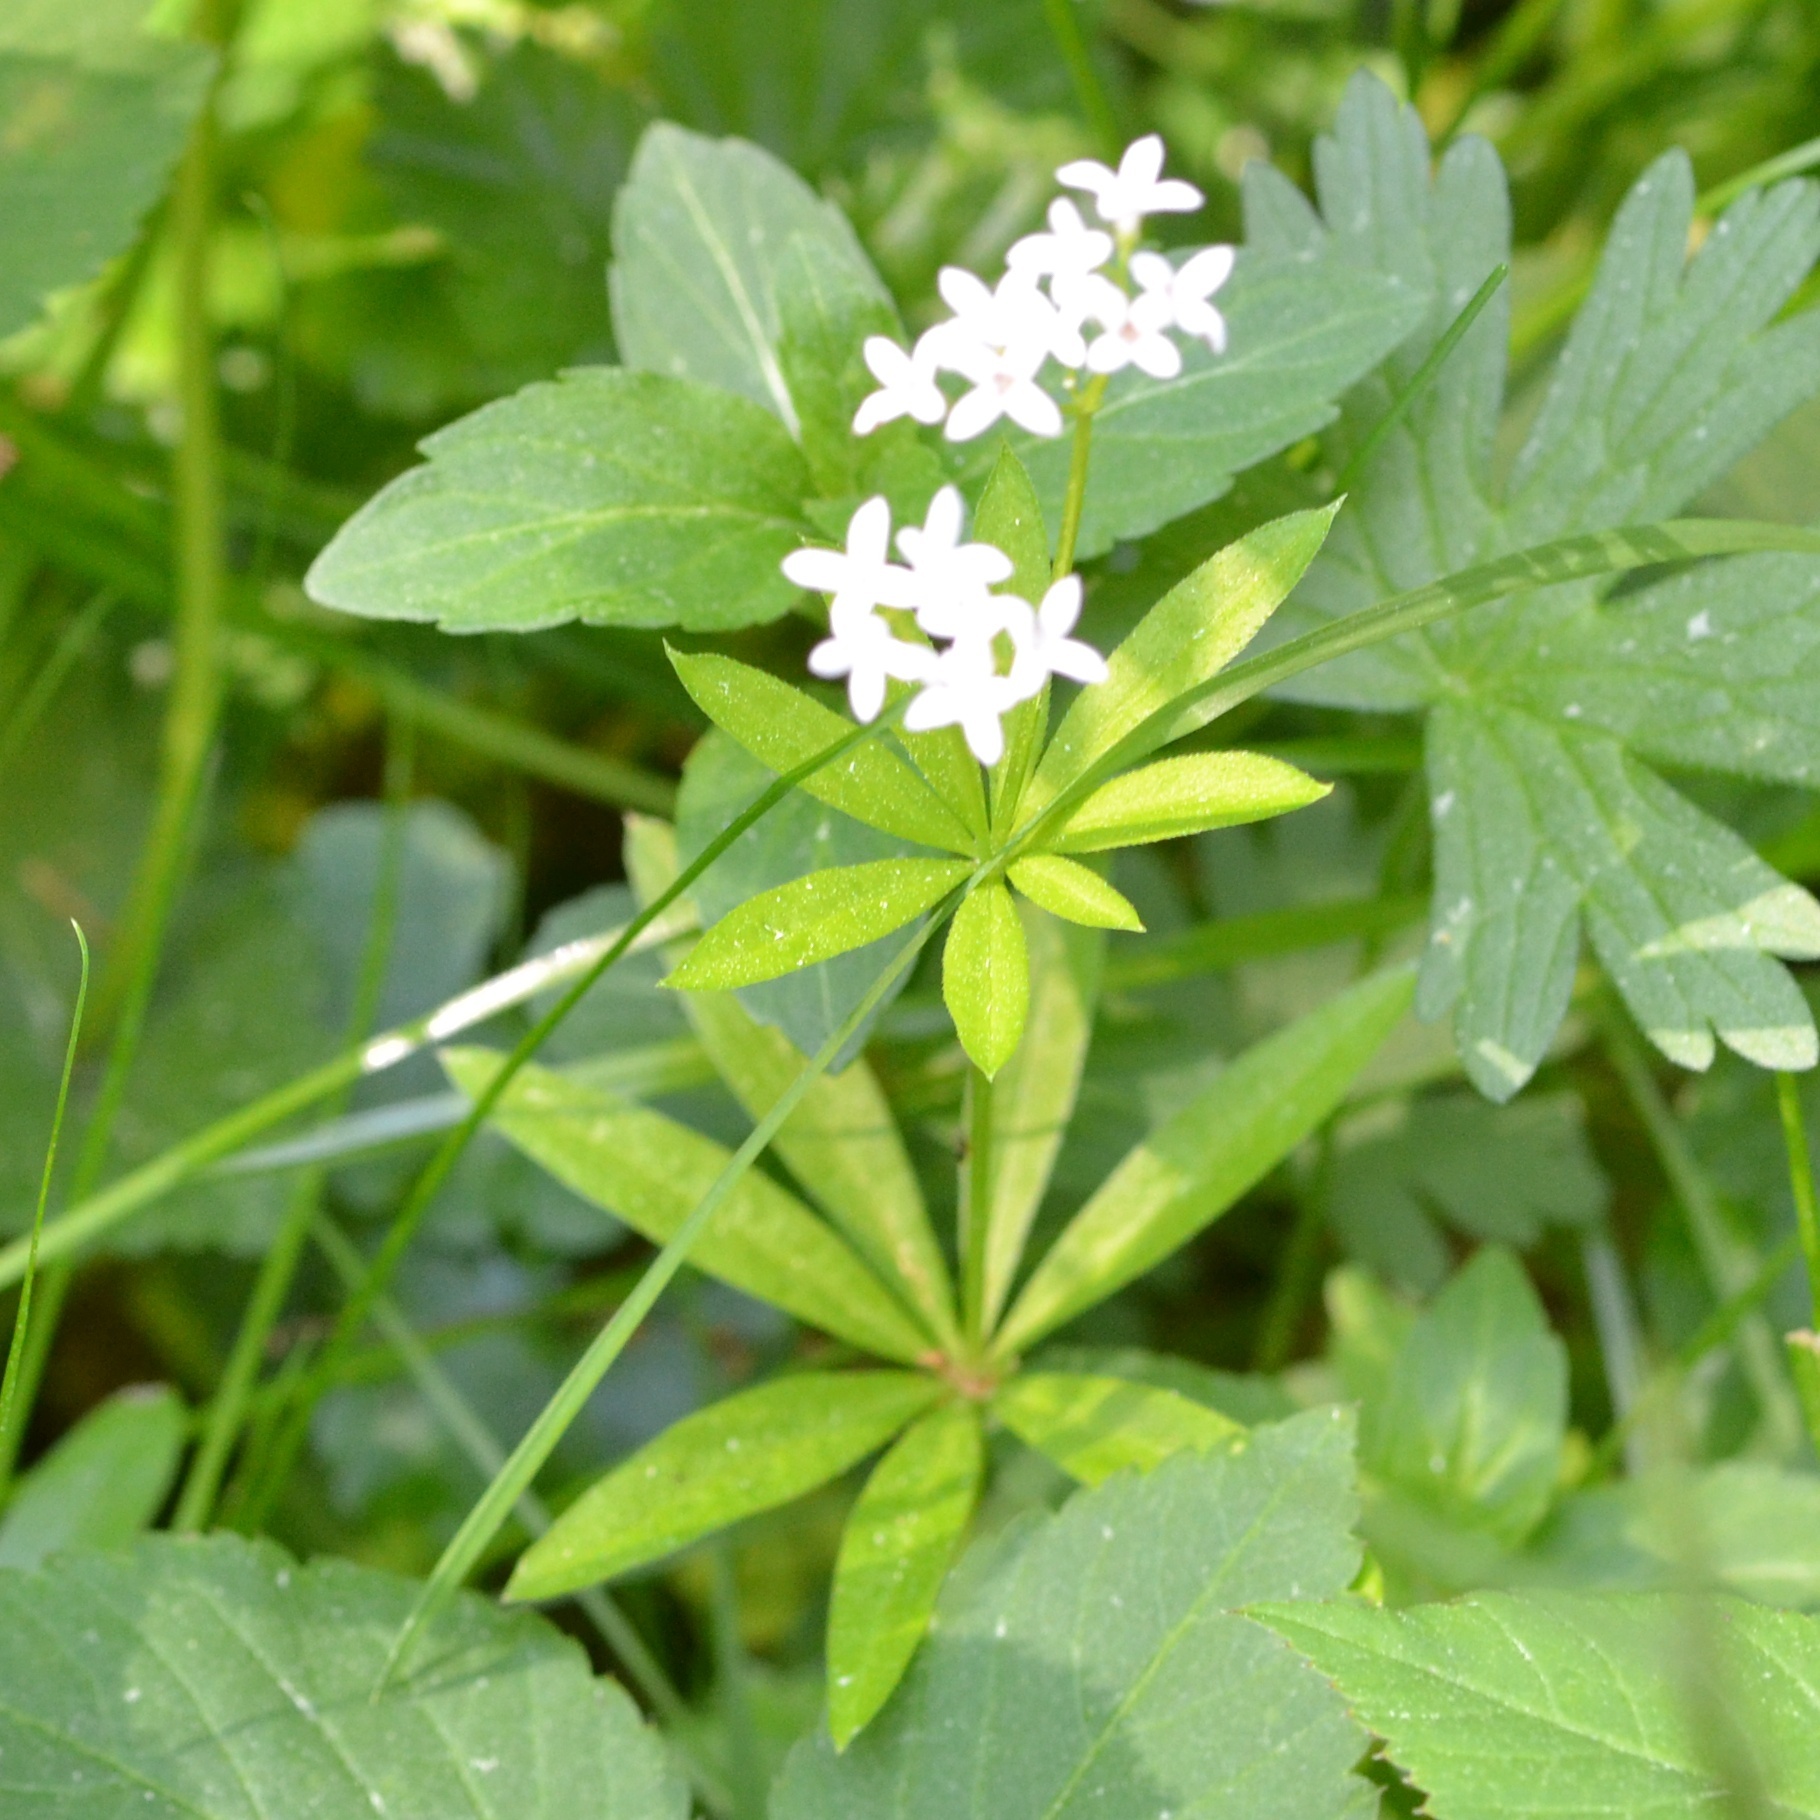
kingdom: Plantae
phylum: Tracheophyta
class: Magnoliopsida
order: Gentianales
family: Rubiaceae
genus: Galium
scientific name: Galium odoratum
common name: Sweet woodruff
